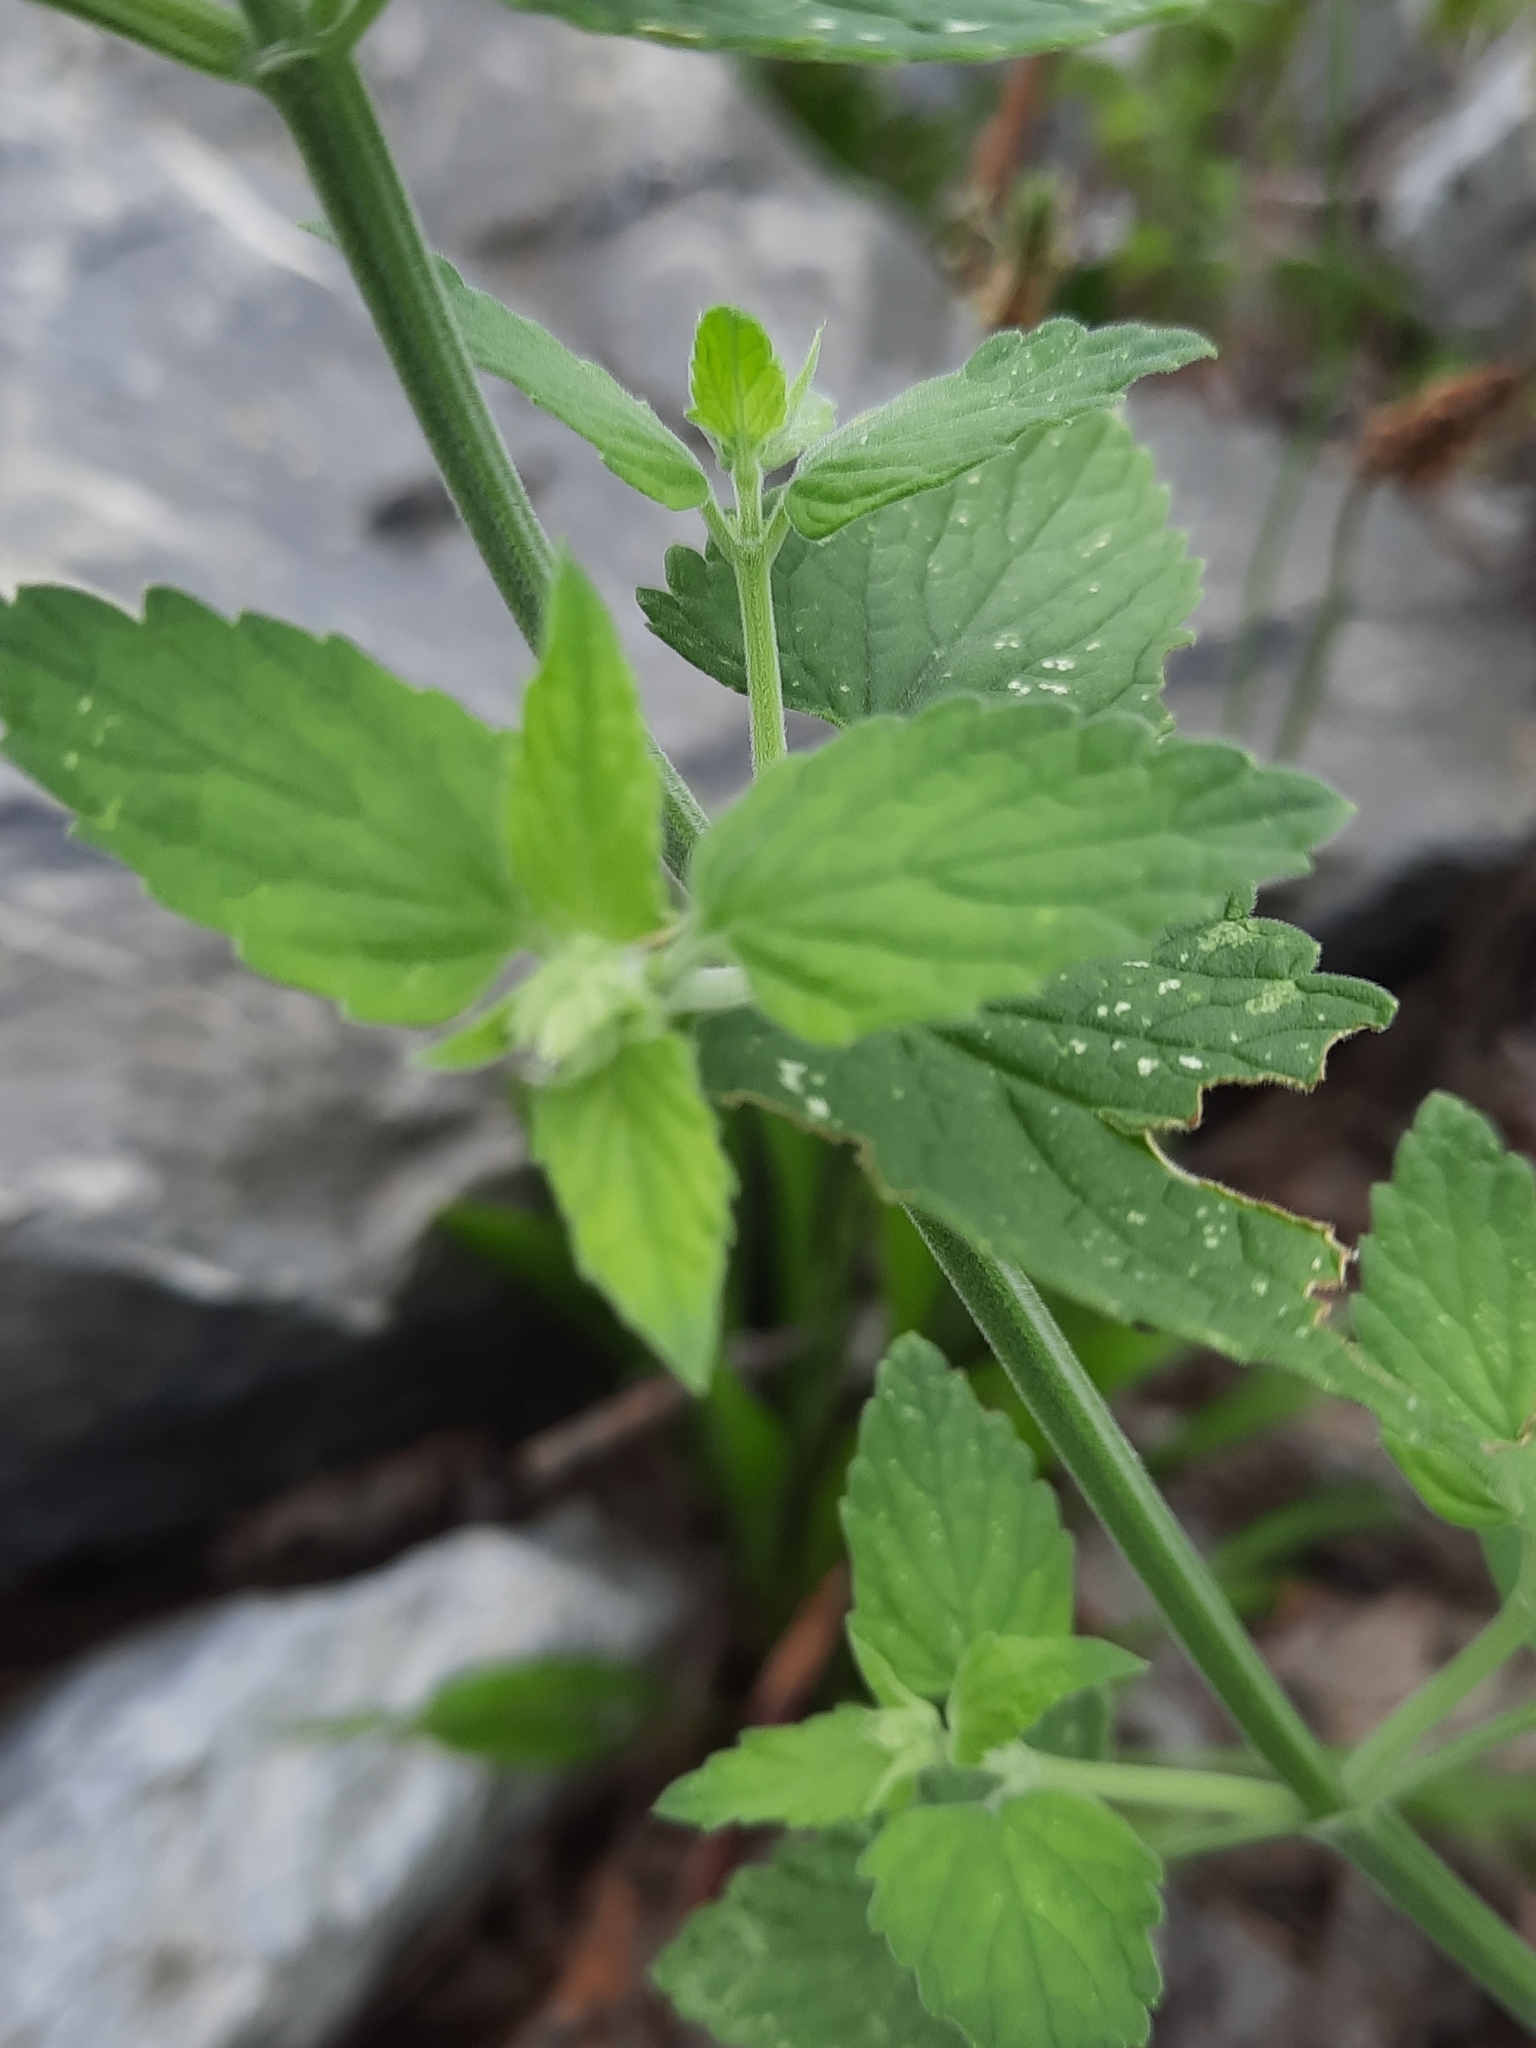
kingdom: Plantae
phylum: Tracheophyta
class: Magnoliopsida
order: Lamiales
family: Lamiaceae
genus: Nepeta
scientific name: Nepeta cataria
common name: Catnip
